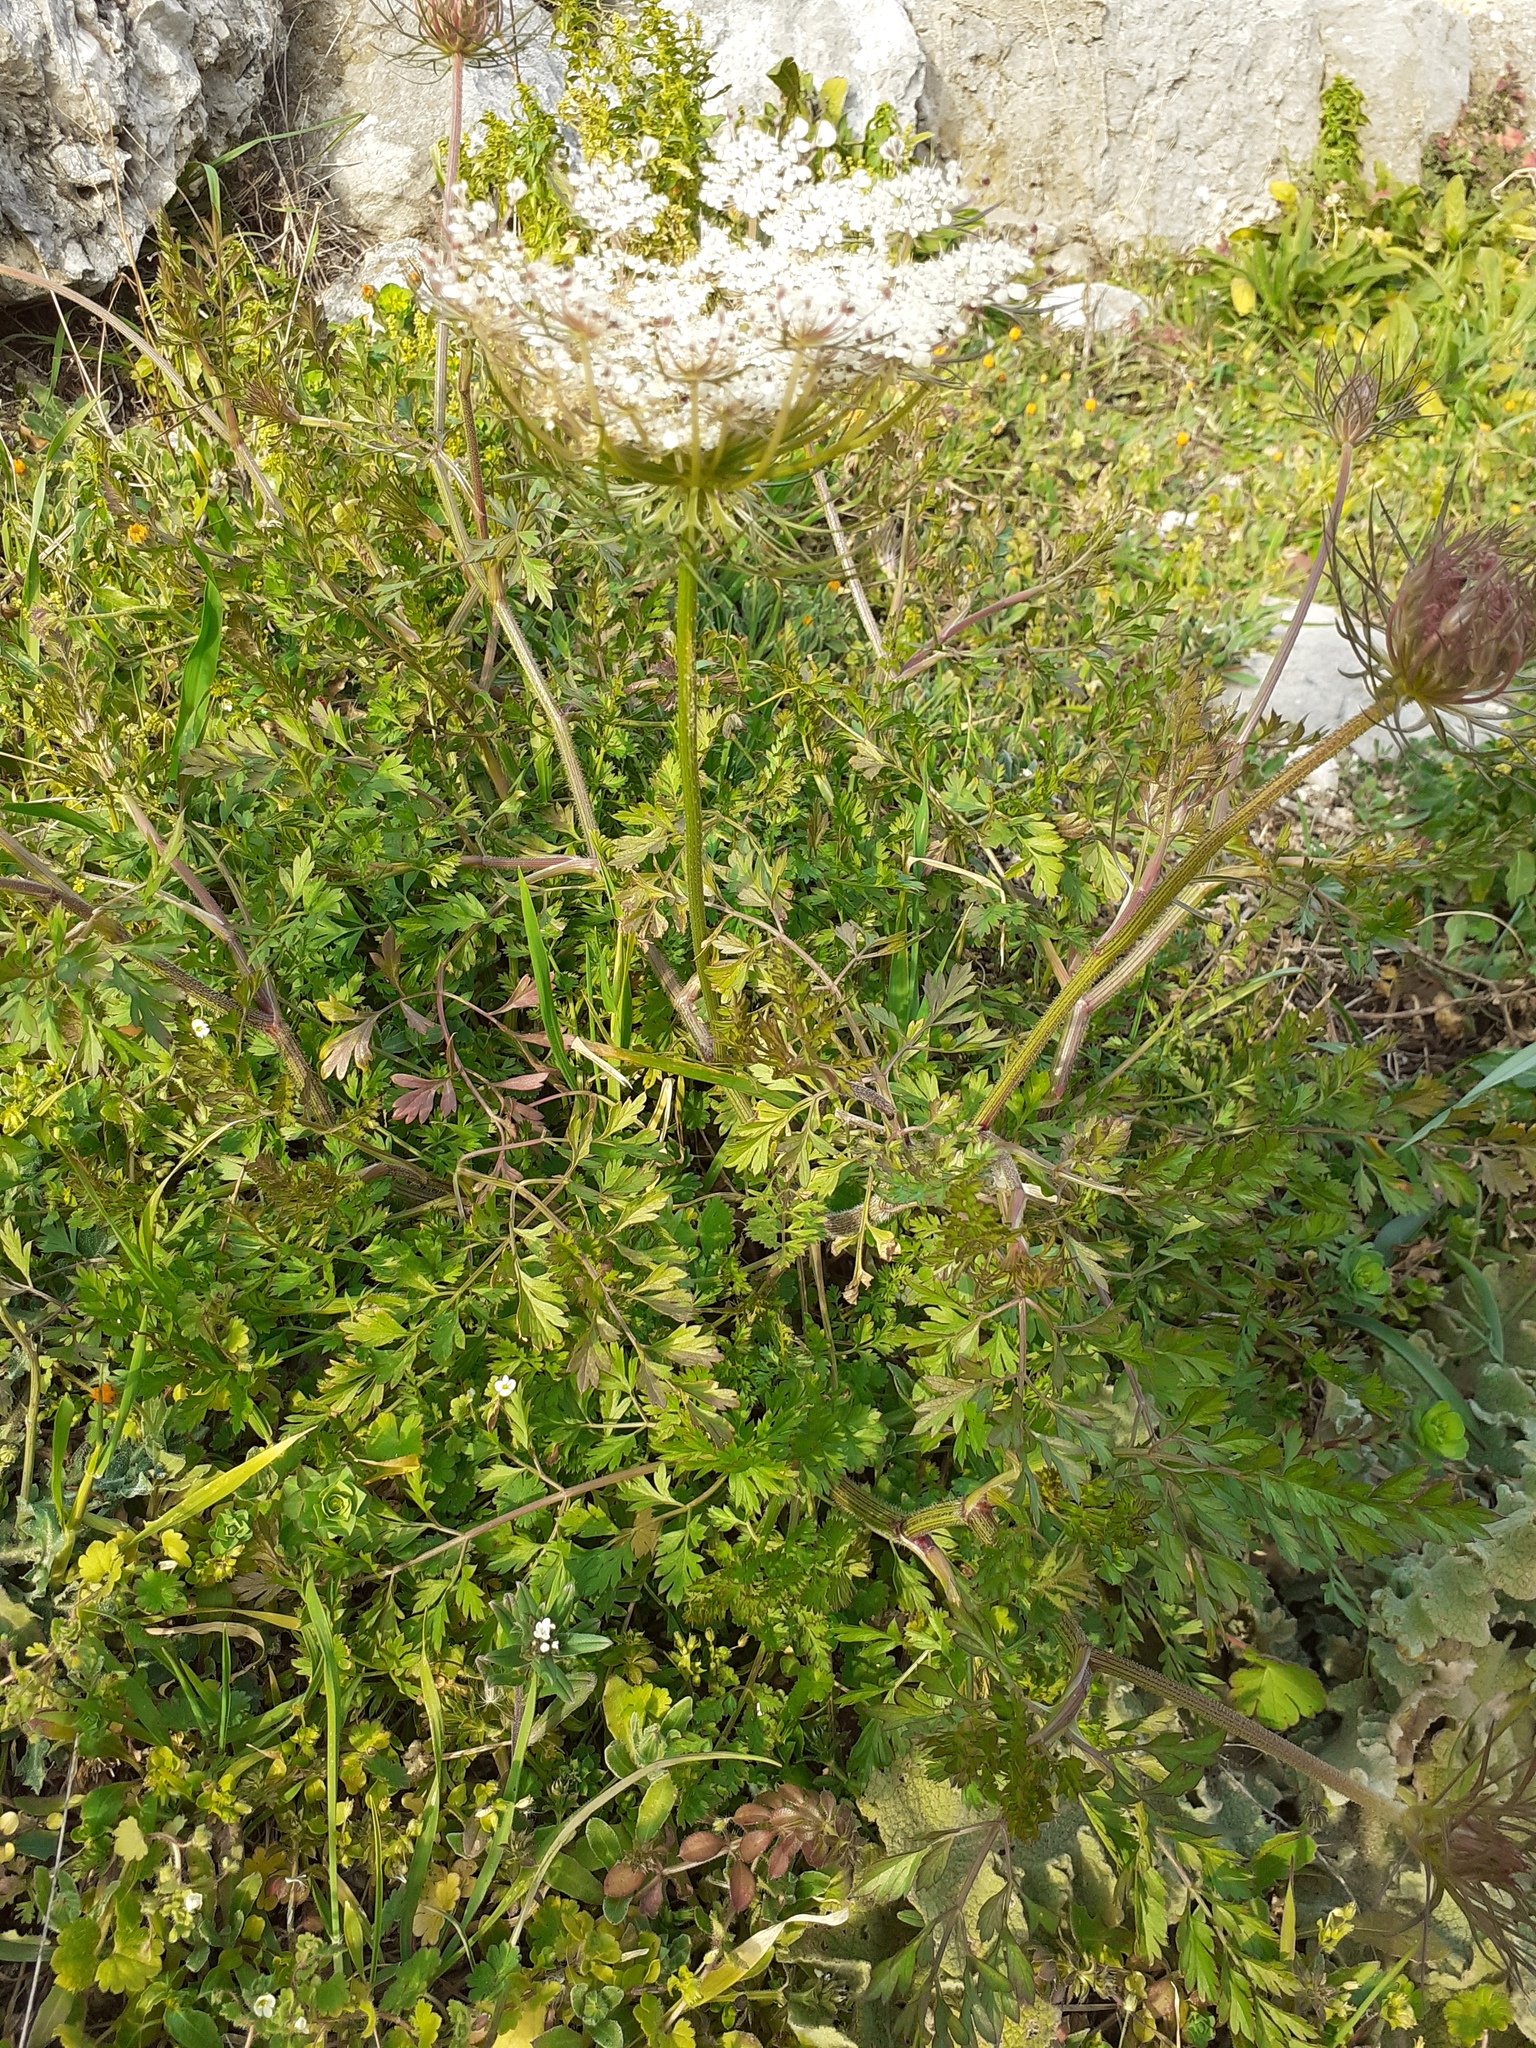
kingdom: Plantae
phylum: Tracheophyta
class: Magnoliopsida
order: Apiales
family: Apiaceae
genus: Daucus
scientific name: Daucus carota
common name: Wild carrot
